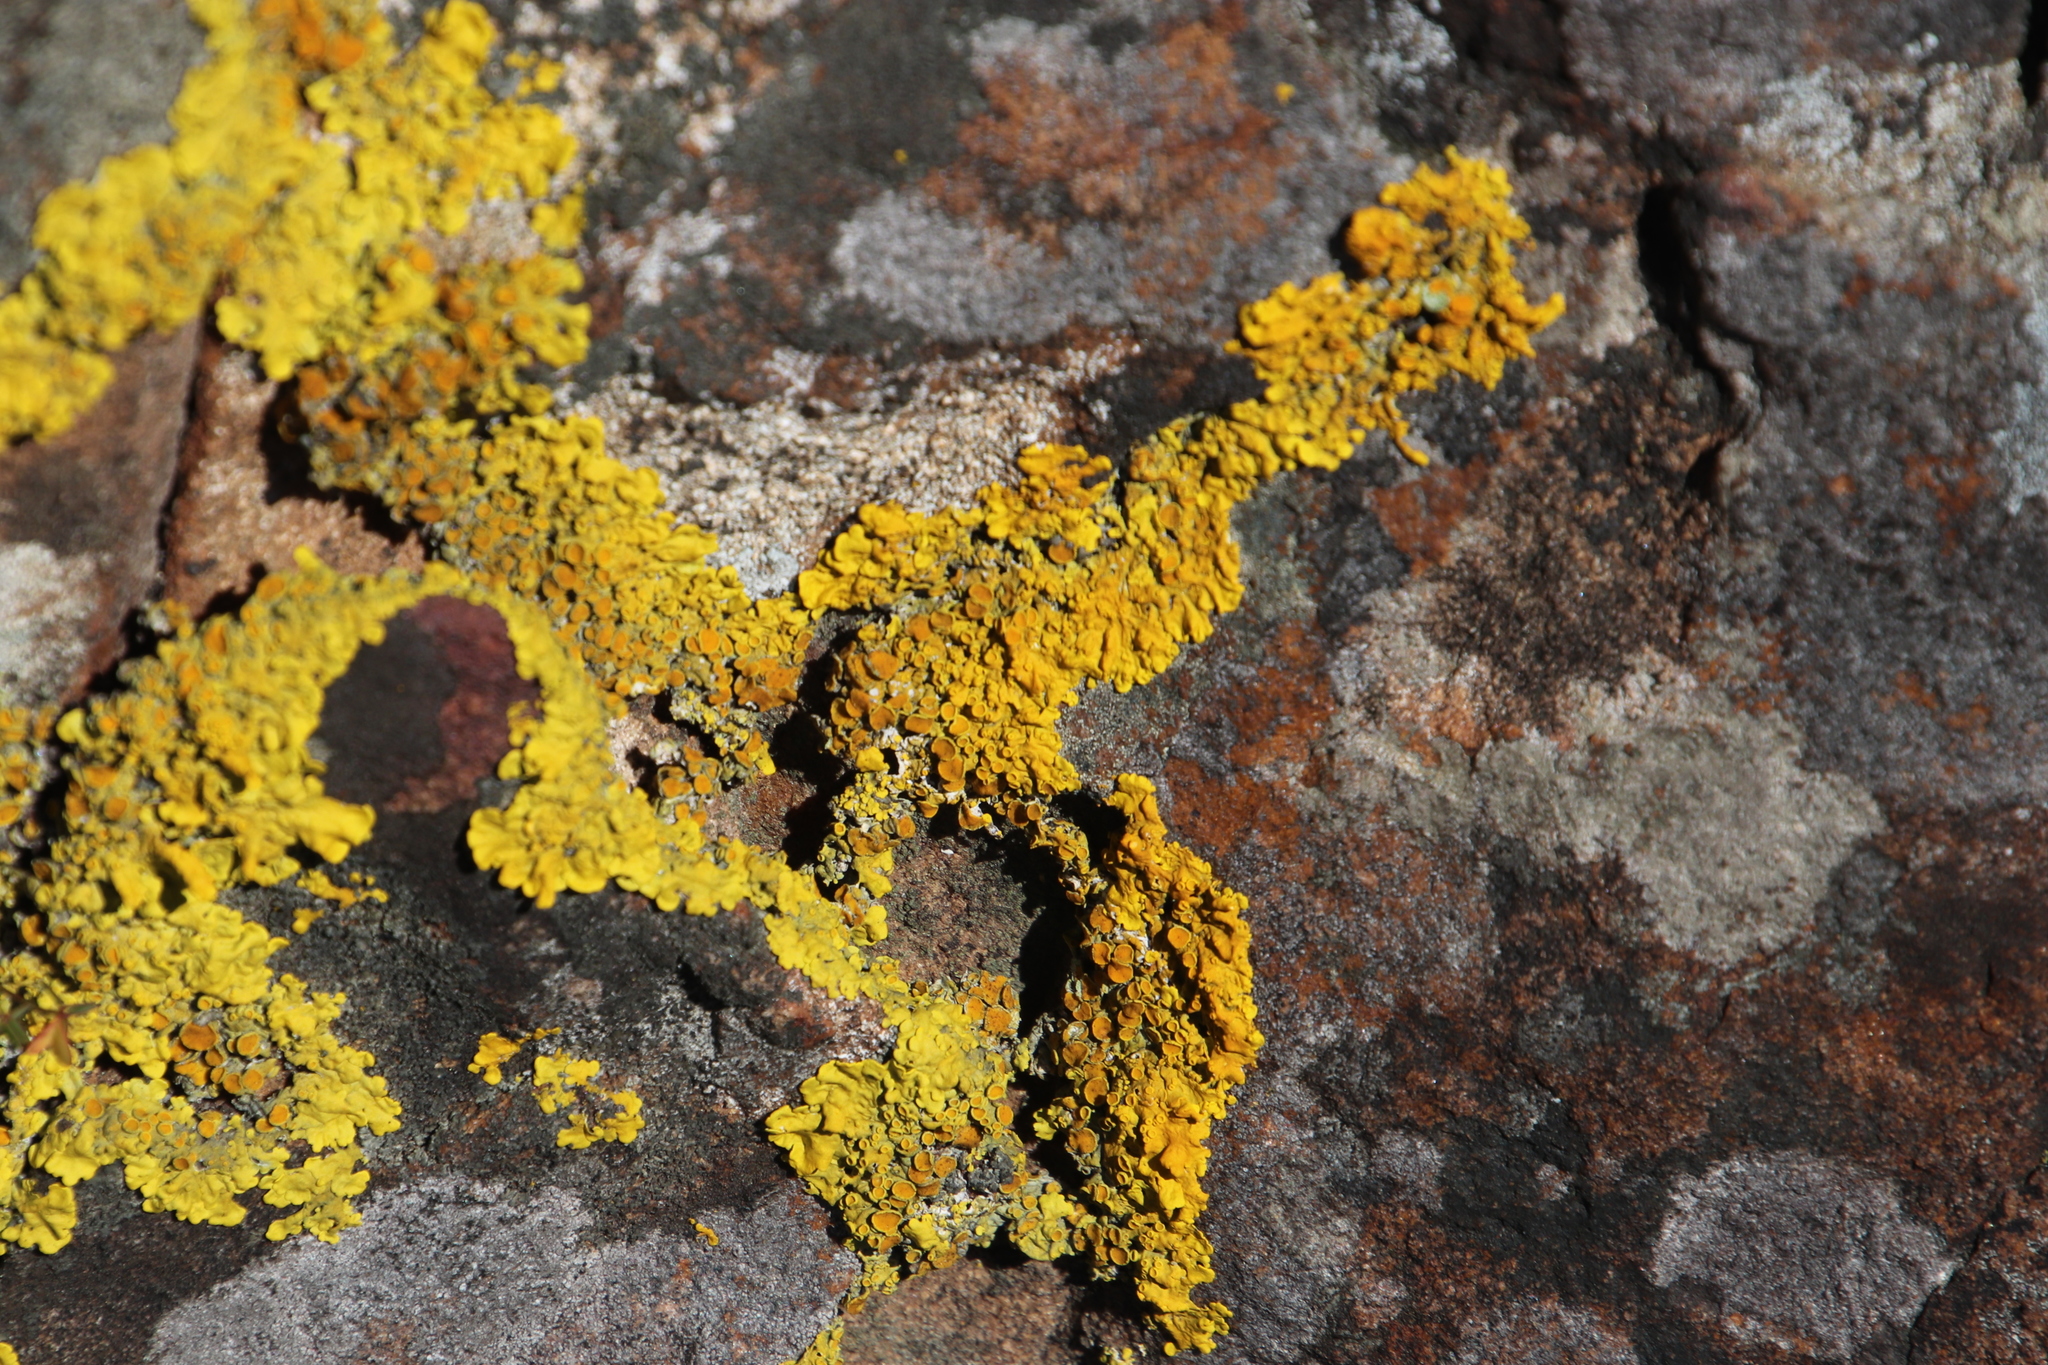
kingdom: Fungi
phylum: Ascomycota
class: Lecanoromycetes
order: Teloschistales
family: Teloschistaceae
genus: Xanthoria
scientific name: Xanthoria parietina
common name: Common orange lichen
